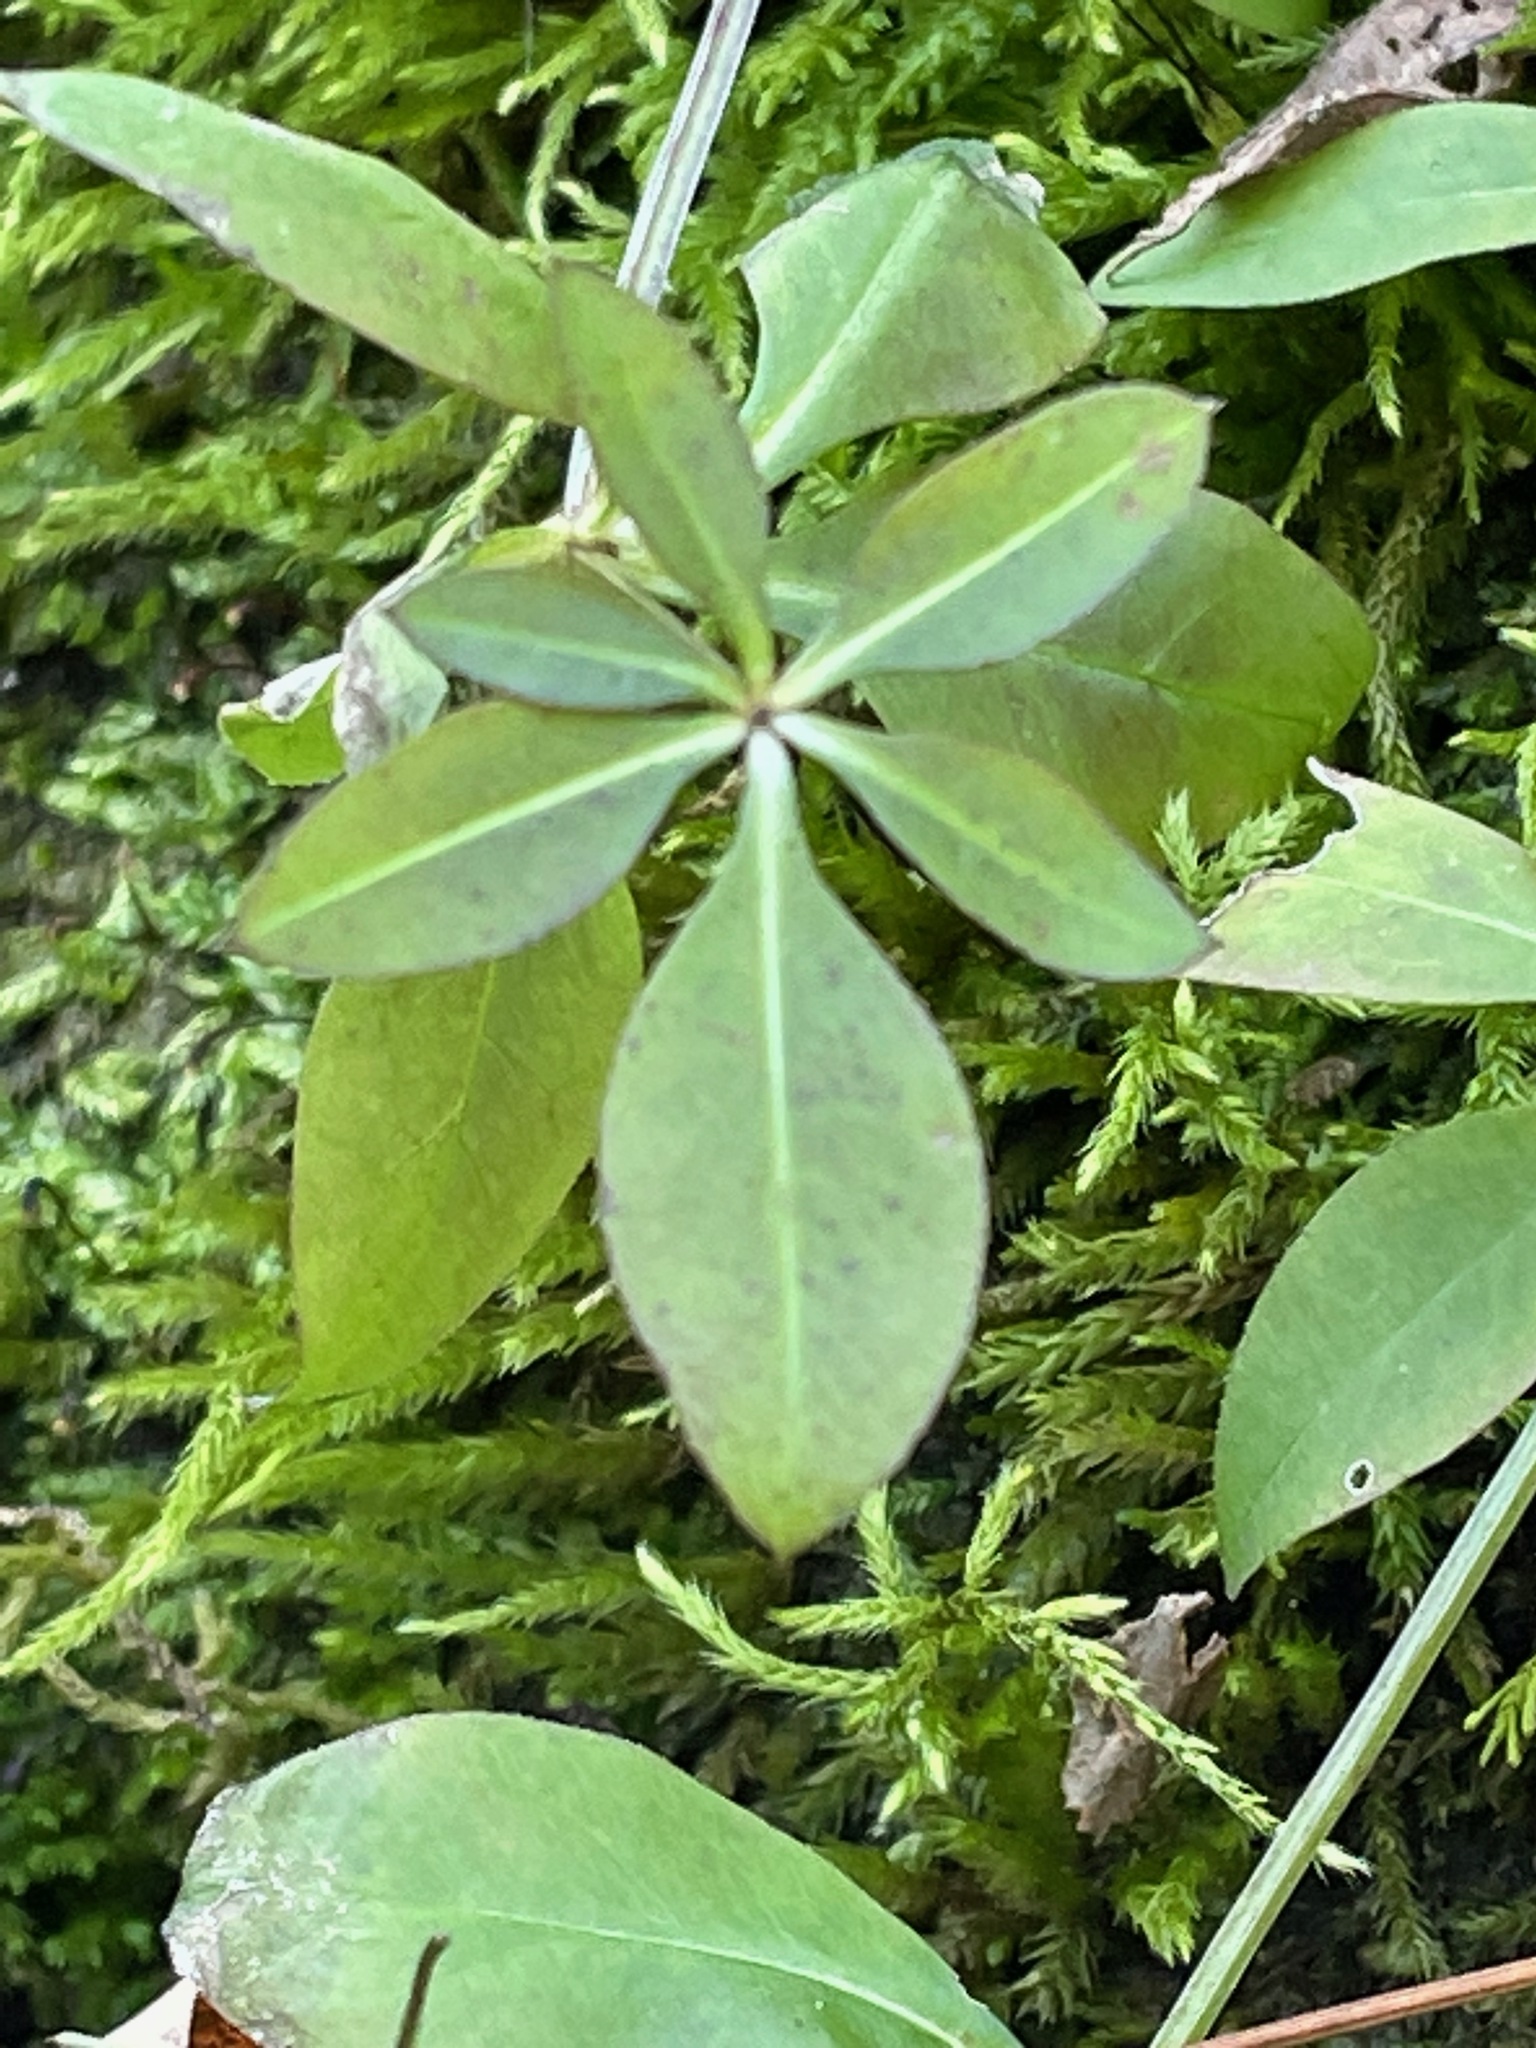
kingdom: Plantae
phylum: Tracheophyta
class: Magnoliopsida
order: Gentianales
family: Rubiaceae
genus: Galium
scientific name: Galium triflorum
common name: Fragrant bedstraw
